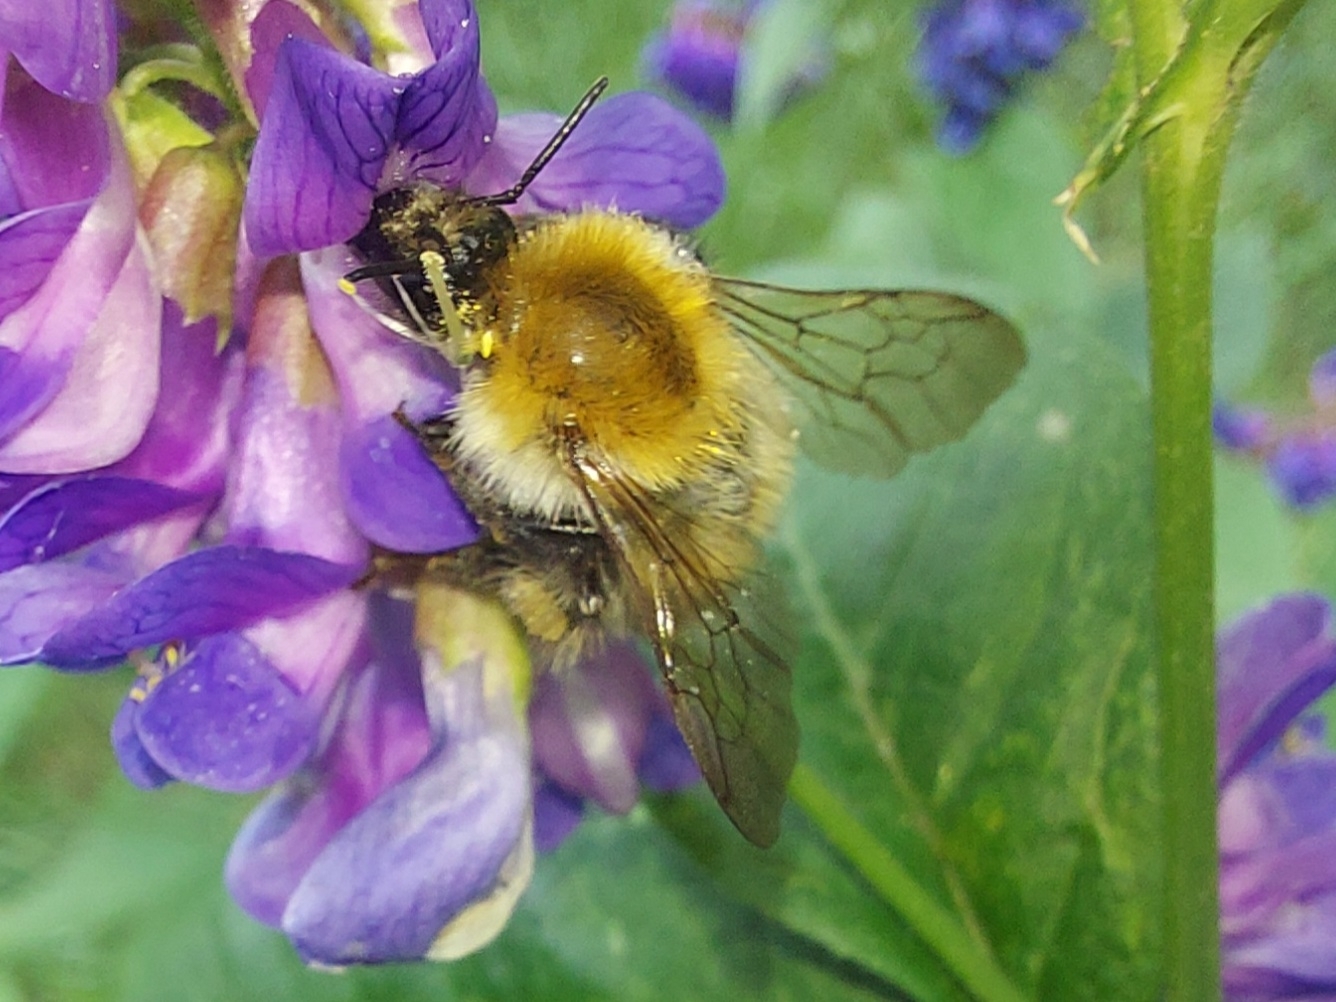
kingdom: Animalia
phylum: Arthropoda
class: Insecta
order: Hymenoptera
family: Apidae
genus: Bombus
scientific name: Bombus
